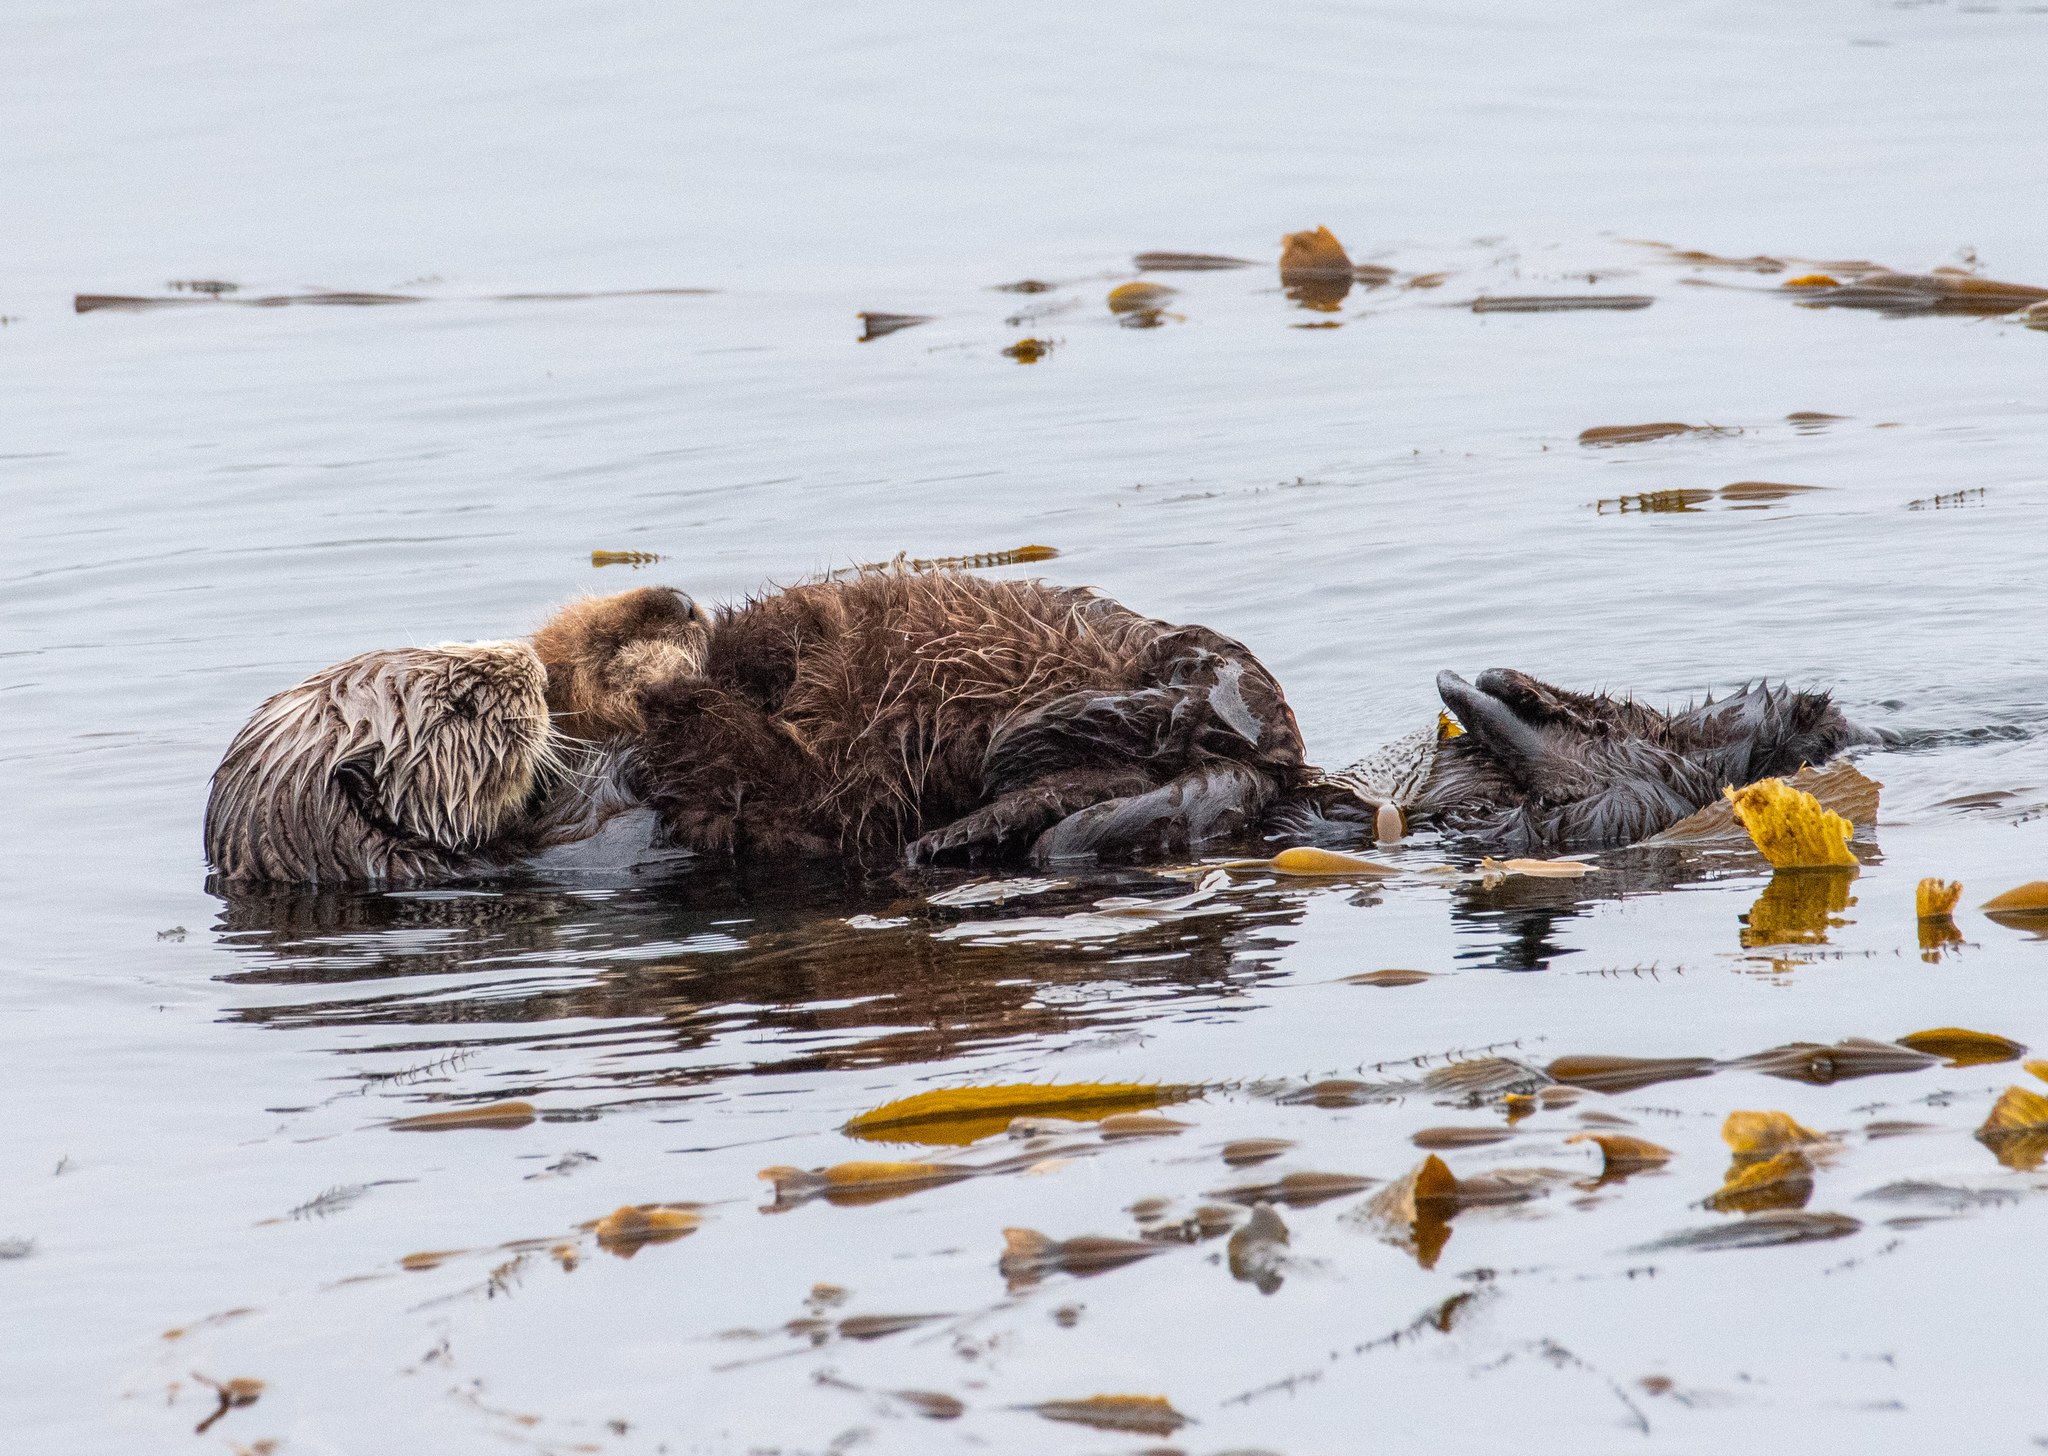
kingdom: Animalia
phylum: Chordata
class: Mammalia
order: Carnivora
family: Mustelidae
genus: Enhydra
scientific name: Enhydra lutris
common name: Sea otter
